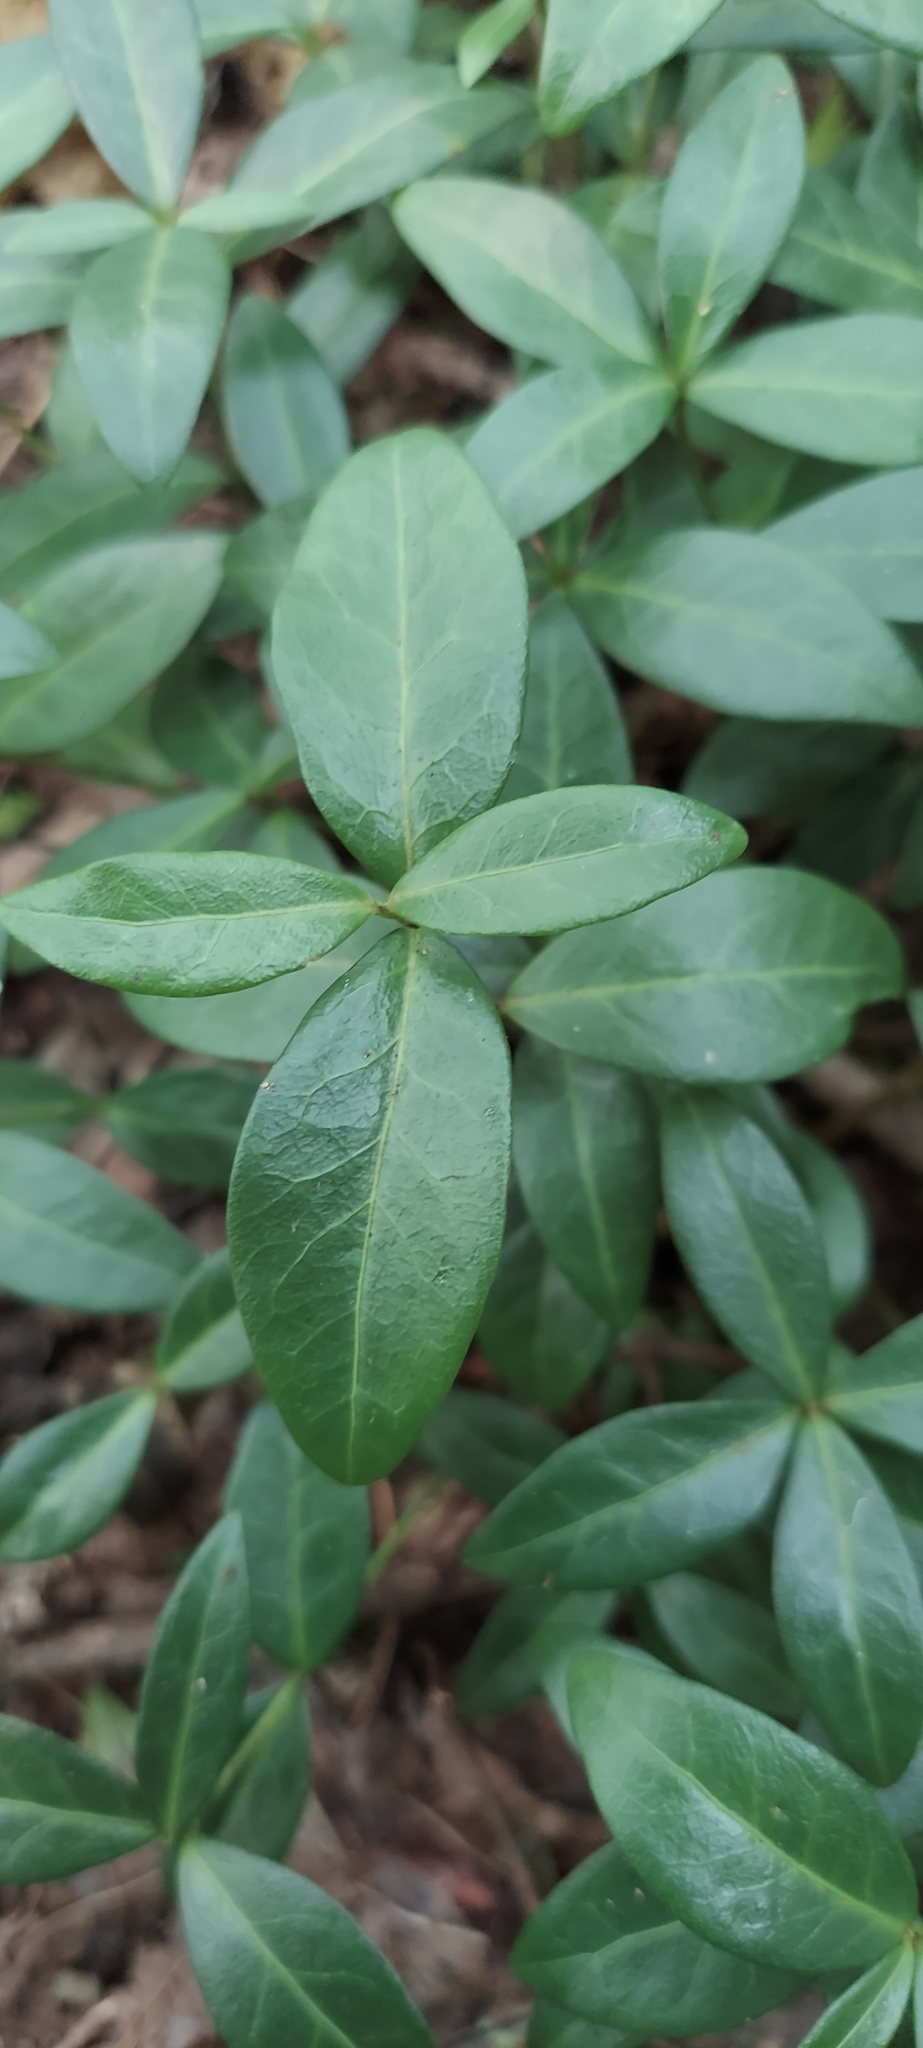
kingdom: Plantae
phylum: Tracheophyta
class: Magnoliopsida
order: Gentianales
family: Apocynaceae
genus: Vinca
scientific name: Vinca minor
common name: Lesser periwinkle
